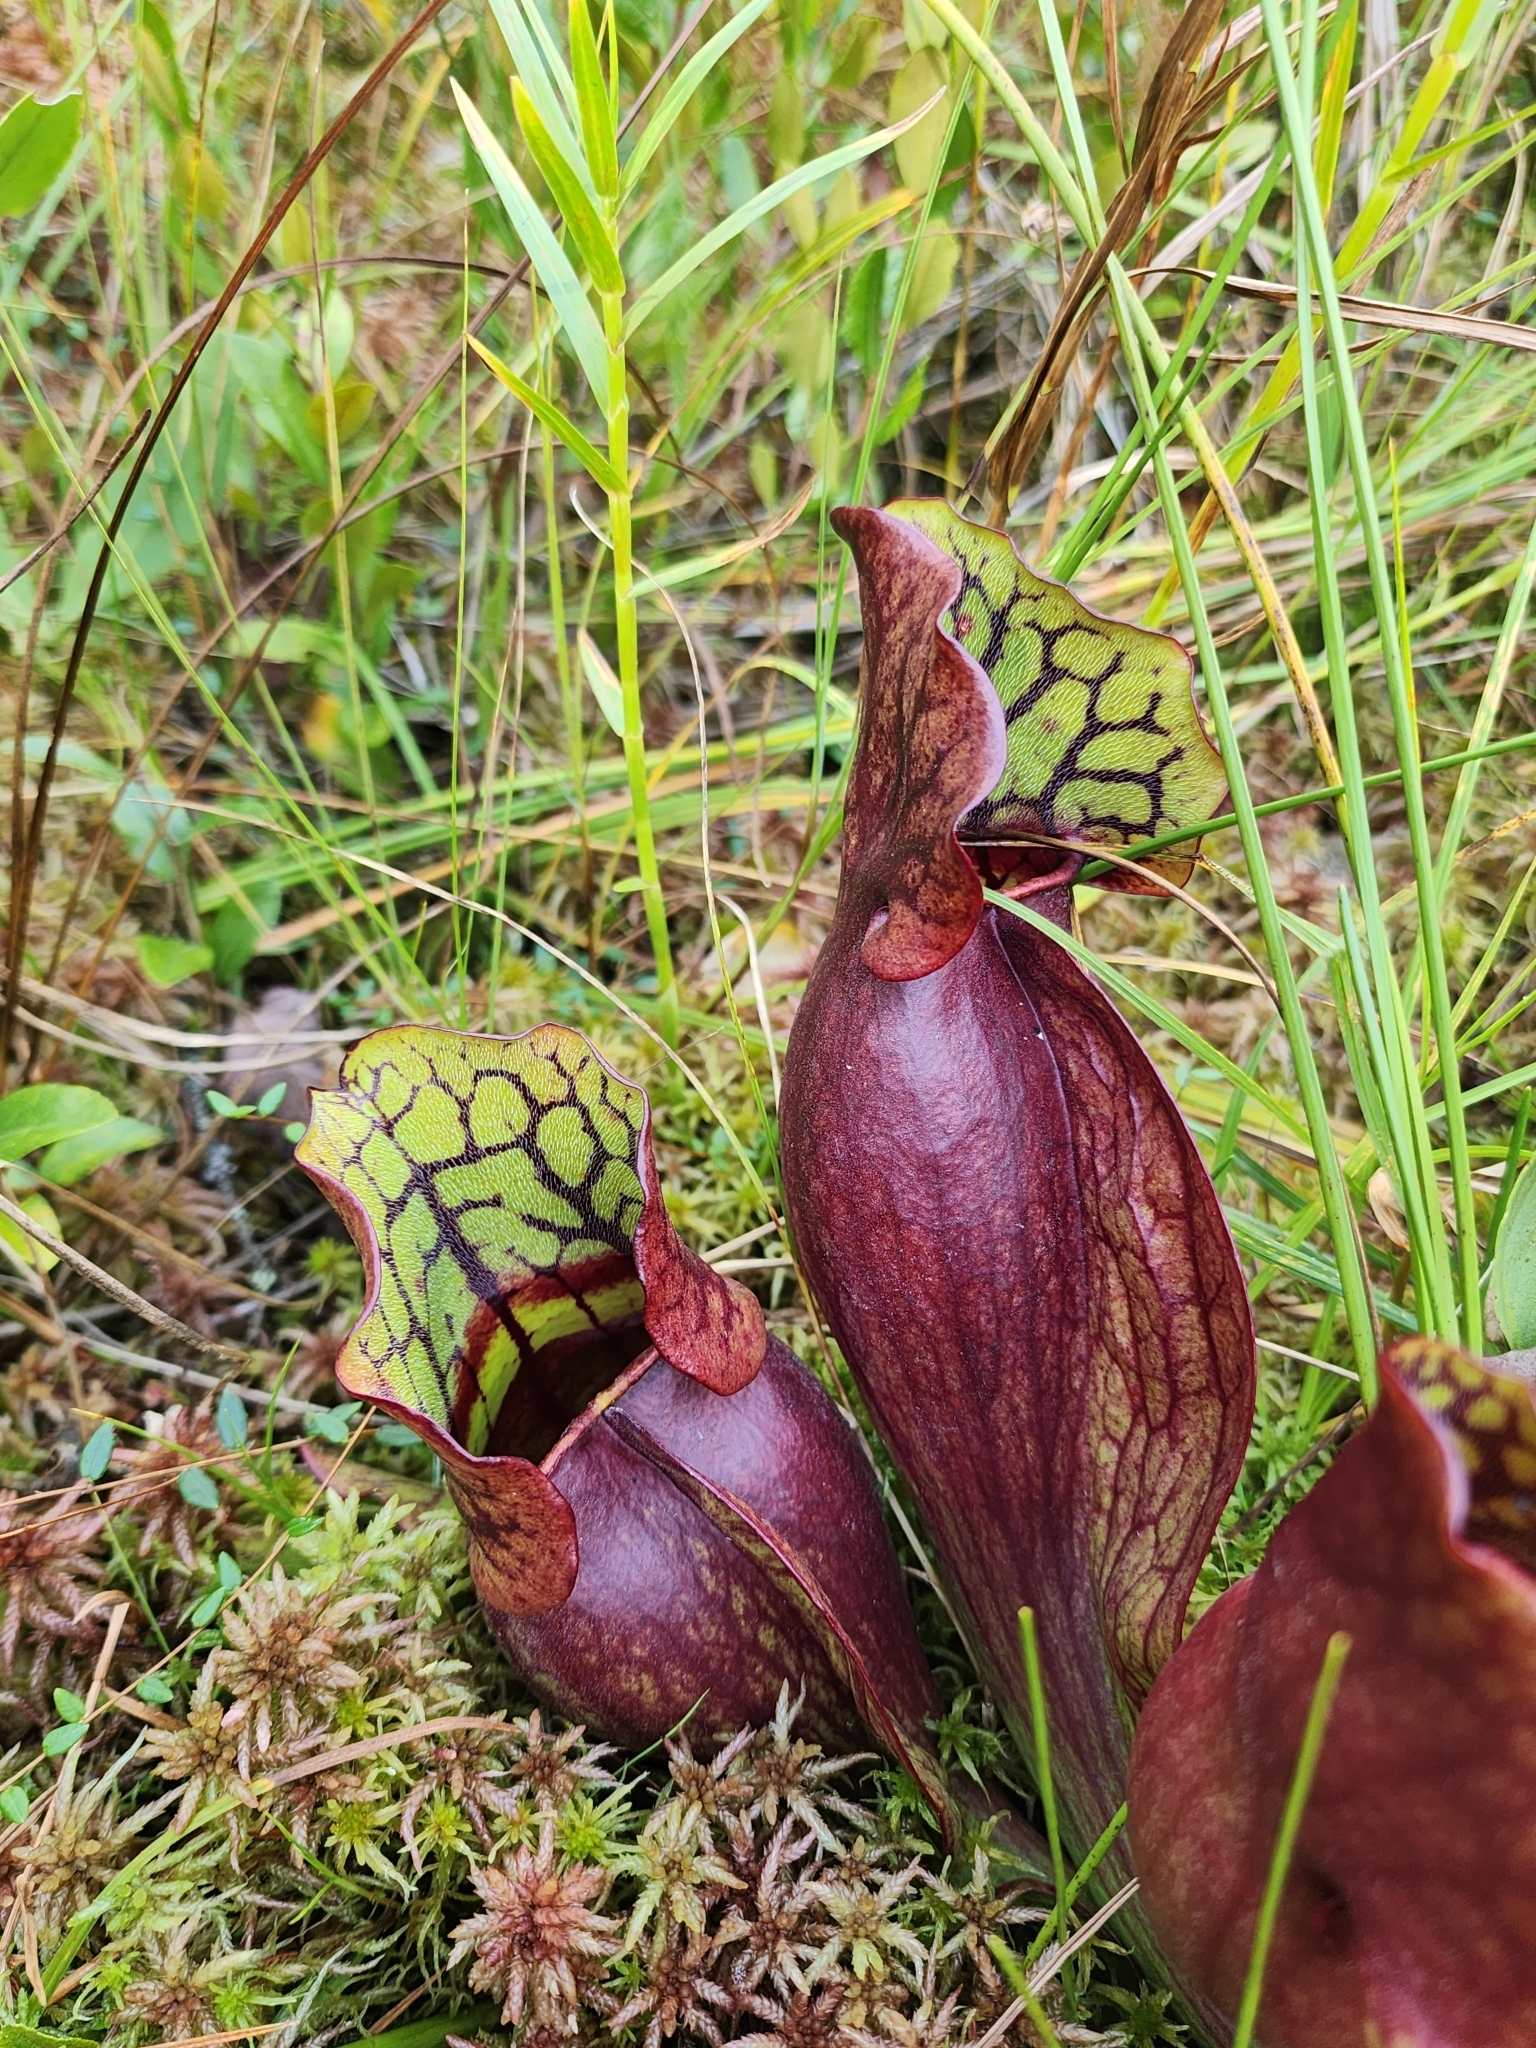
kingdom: Plantae
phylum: Tracheophyta
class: Magnoliopsida
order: Ericales
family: Sarraceniaceae
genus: Sarracenia
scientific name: Sarracenia purpurea
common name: Pitcherplant
